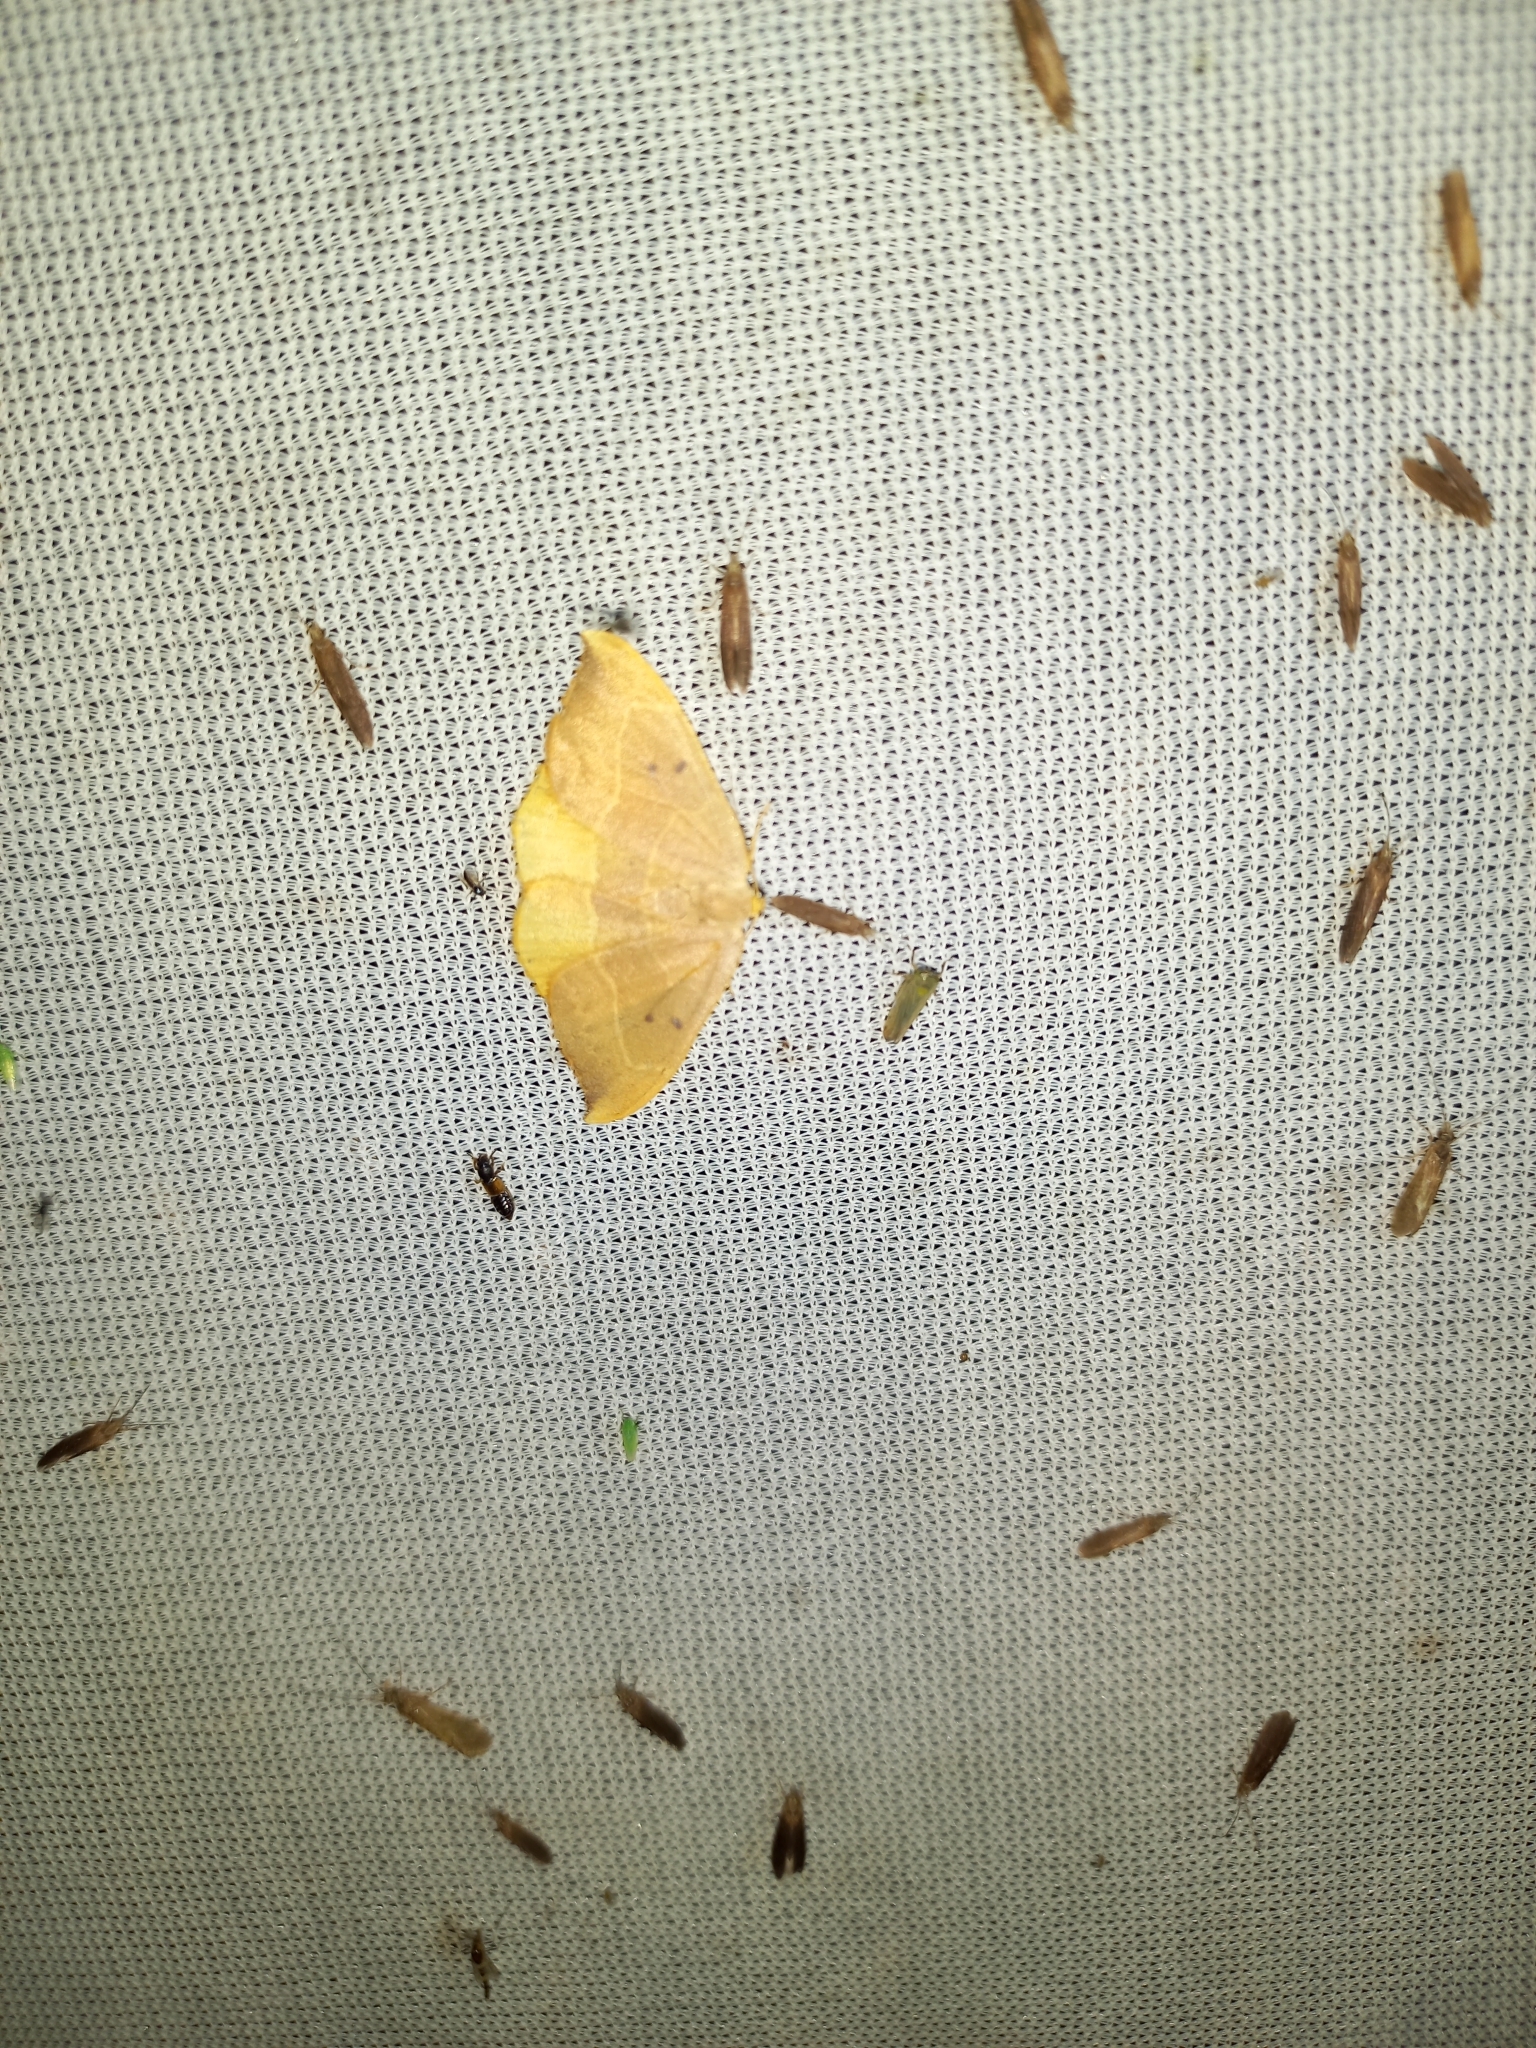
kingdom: Animalia
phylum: Arthropoda
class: Insecta
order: Lepidoptera
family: Drepanidae
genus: Watsonalla
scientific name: Watsonalla binaria
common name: Oak hook-tip
